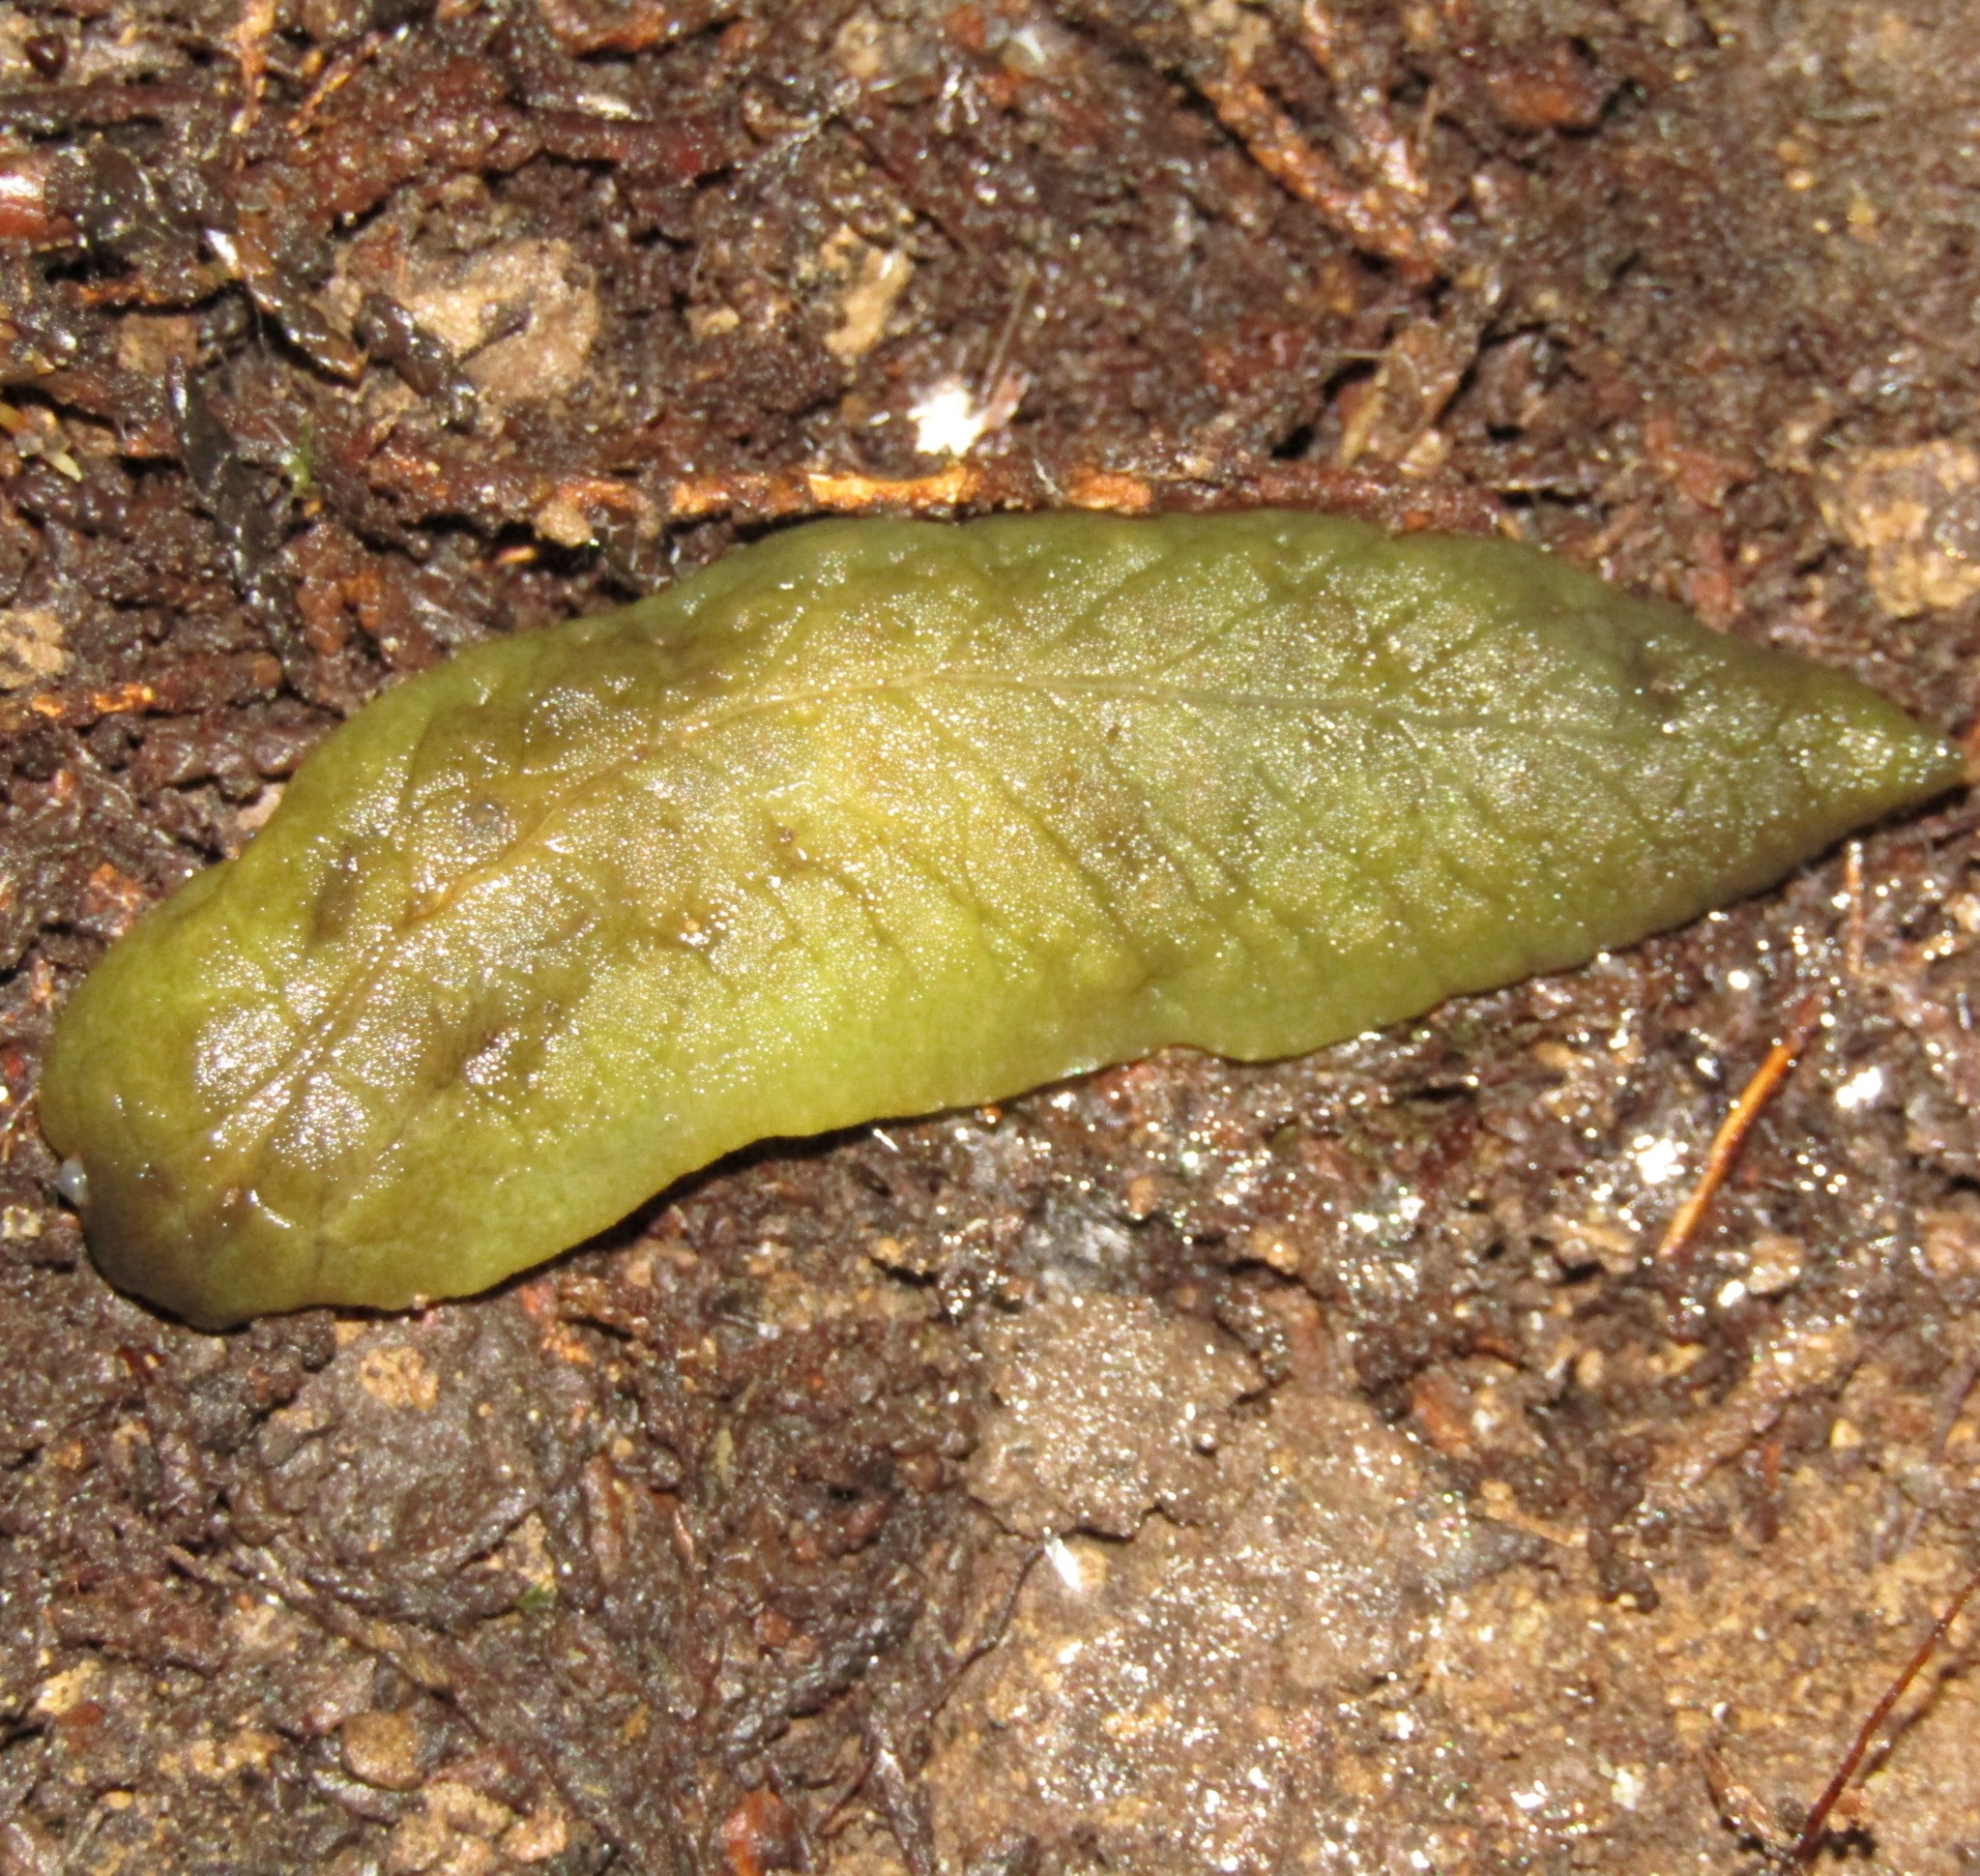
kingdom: Animalia
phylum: Mollusca
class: Gastropoda
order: Stylommatophora
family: Athoracophoridae
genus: Athoracophorus
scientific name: Athoracophorus papillatus
